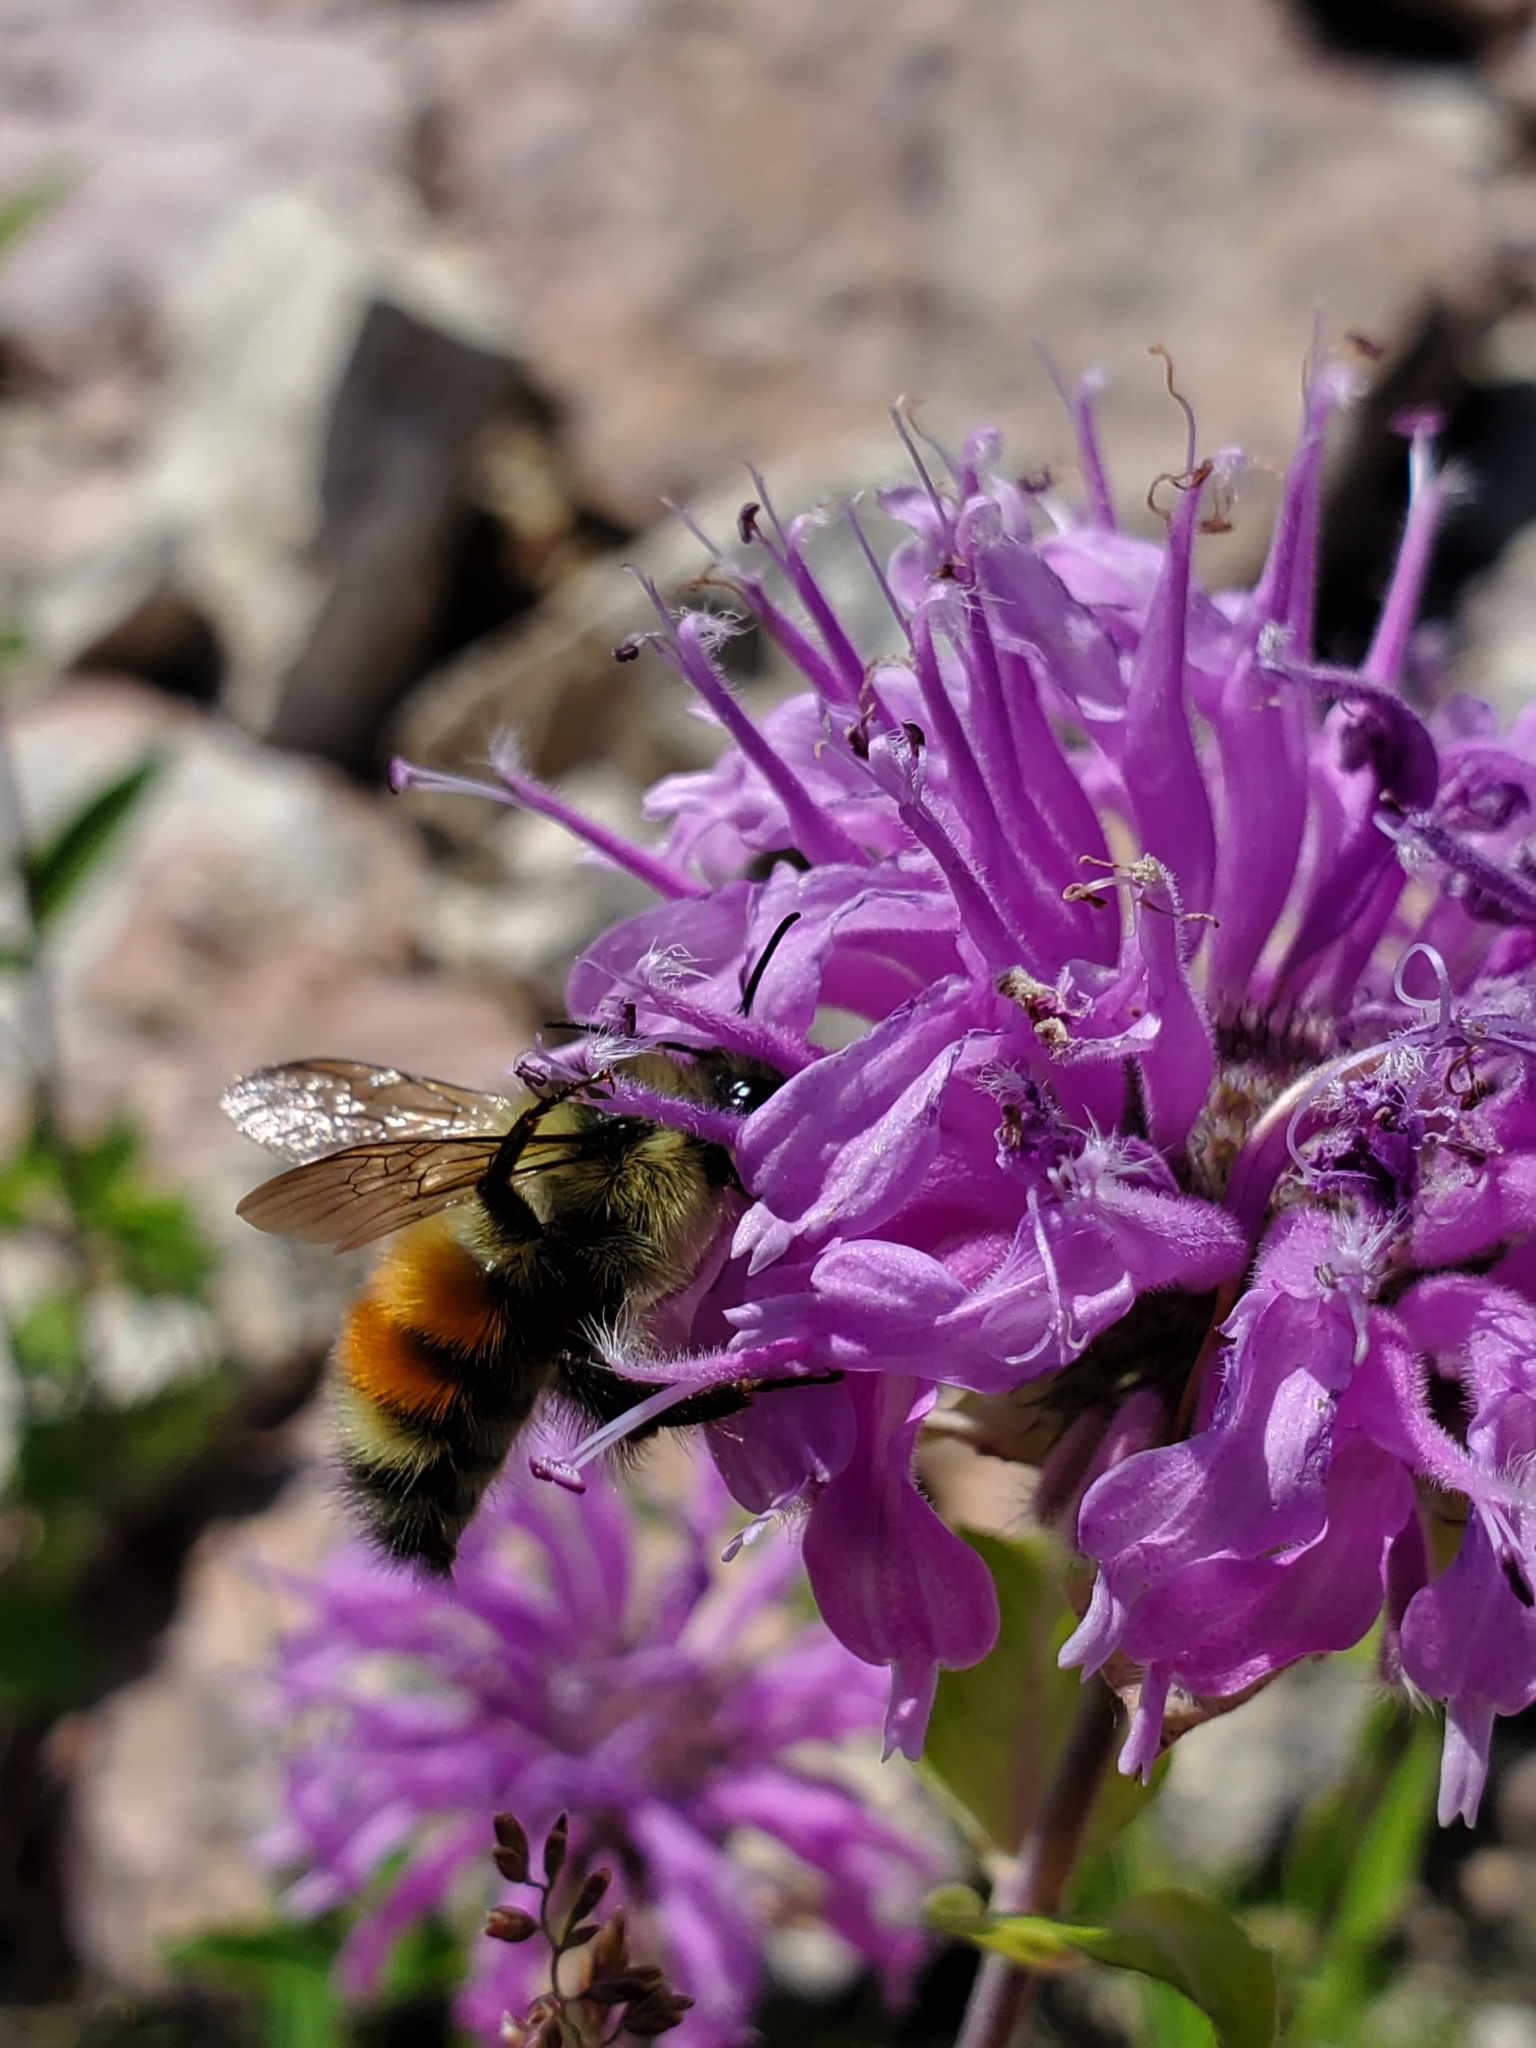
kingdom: Animalia
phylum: Arthropoda
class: Insecta
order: Hymenoptera
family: Apidae
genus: Pyrobombus
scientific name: Pyrobombus
